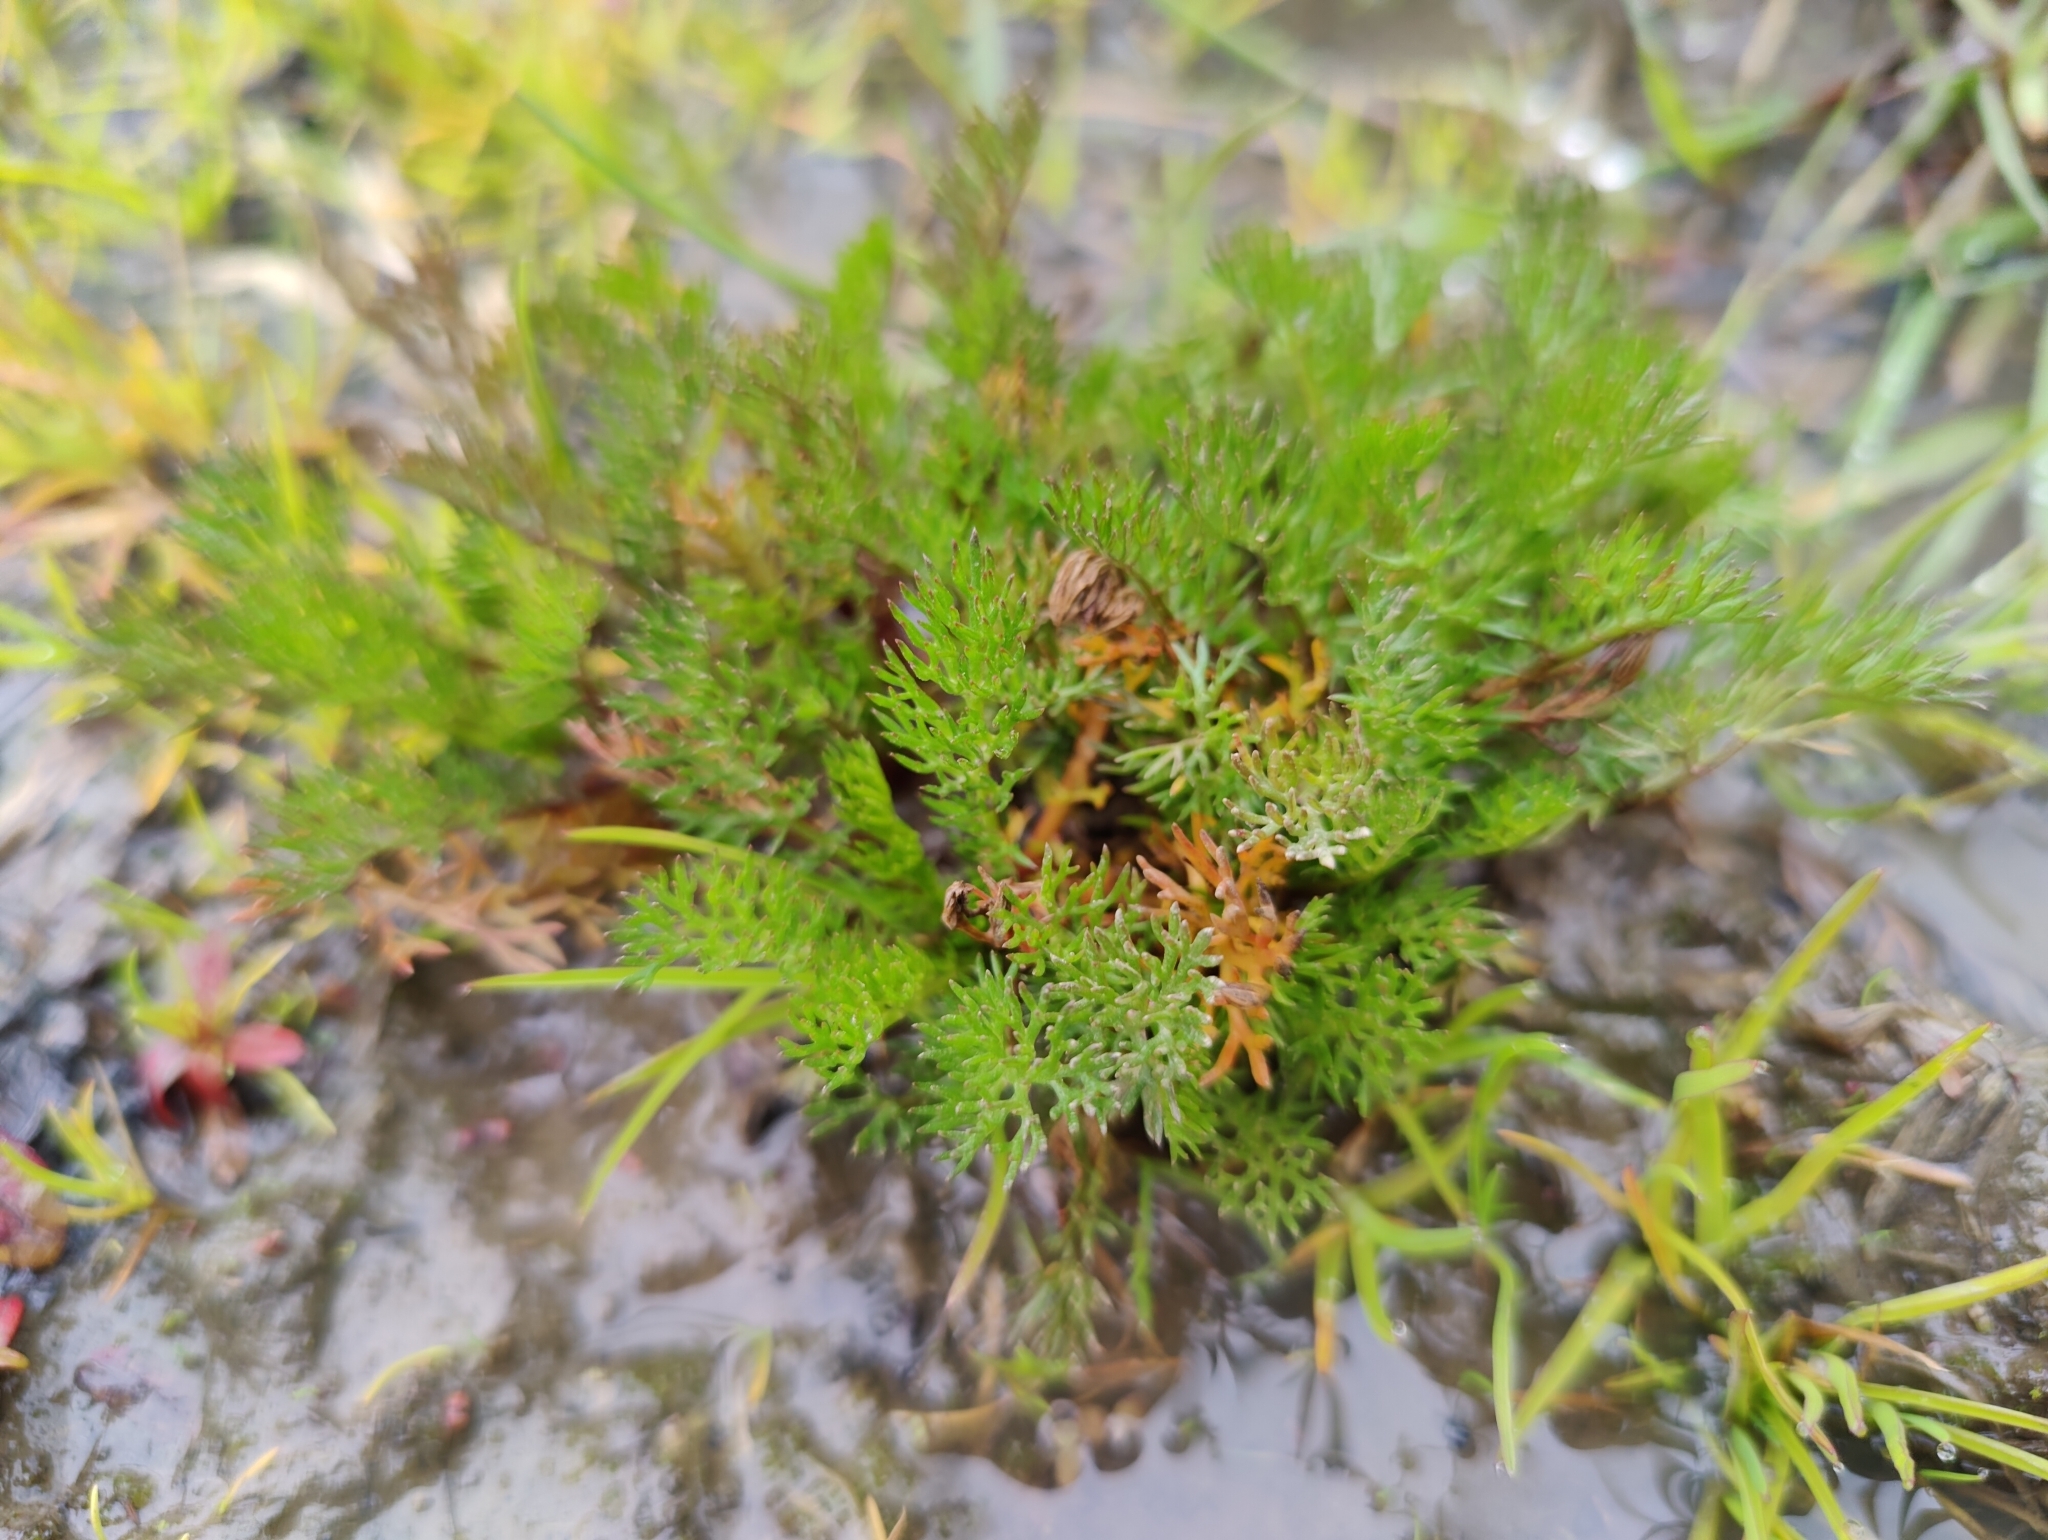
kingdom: Plantae
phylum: Tracheophyta
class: Magnoliopsida
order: Asterales
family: Asteraceae
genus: Tripleurospermum
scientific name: Tripleurospermum inodorum
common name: Scentless mayweed
